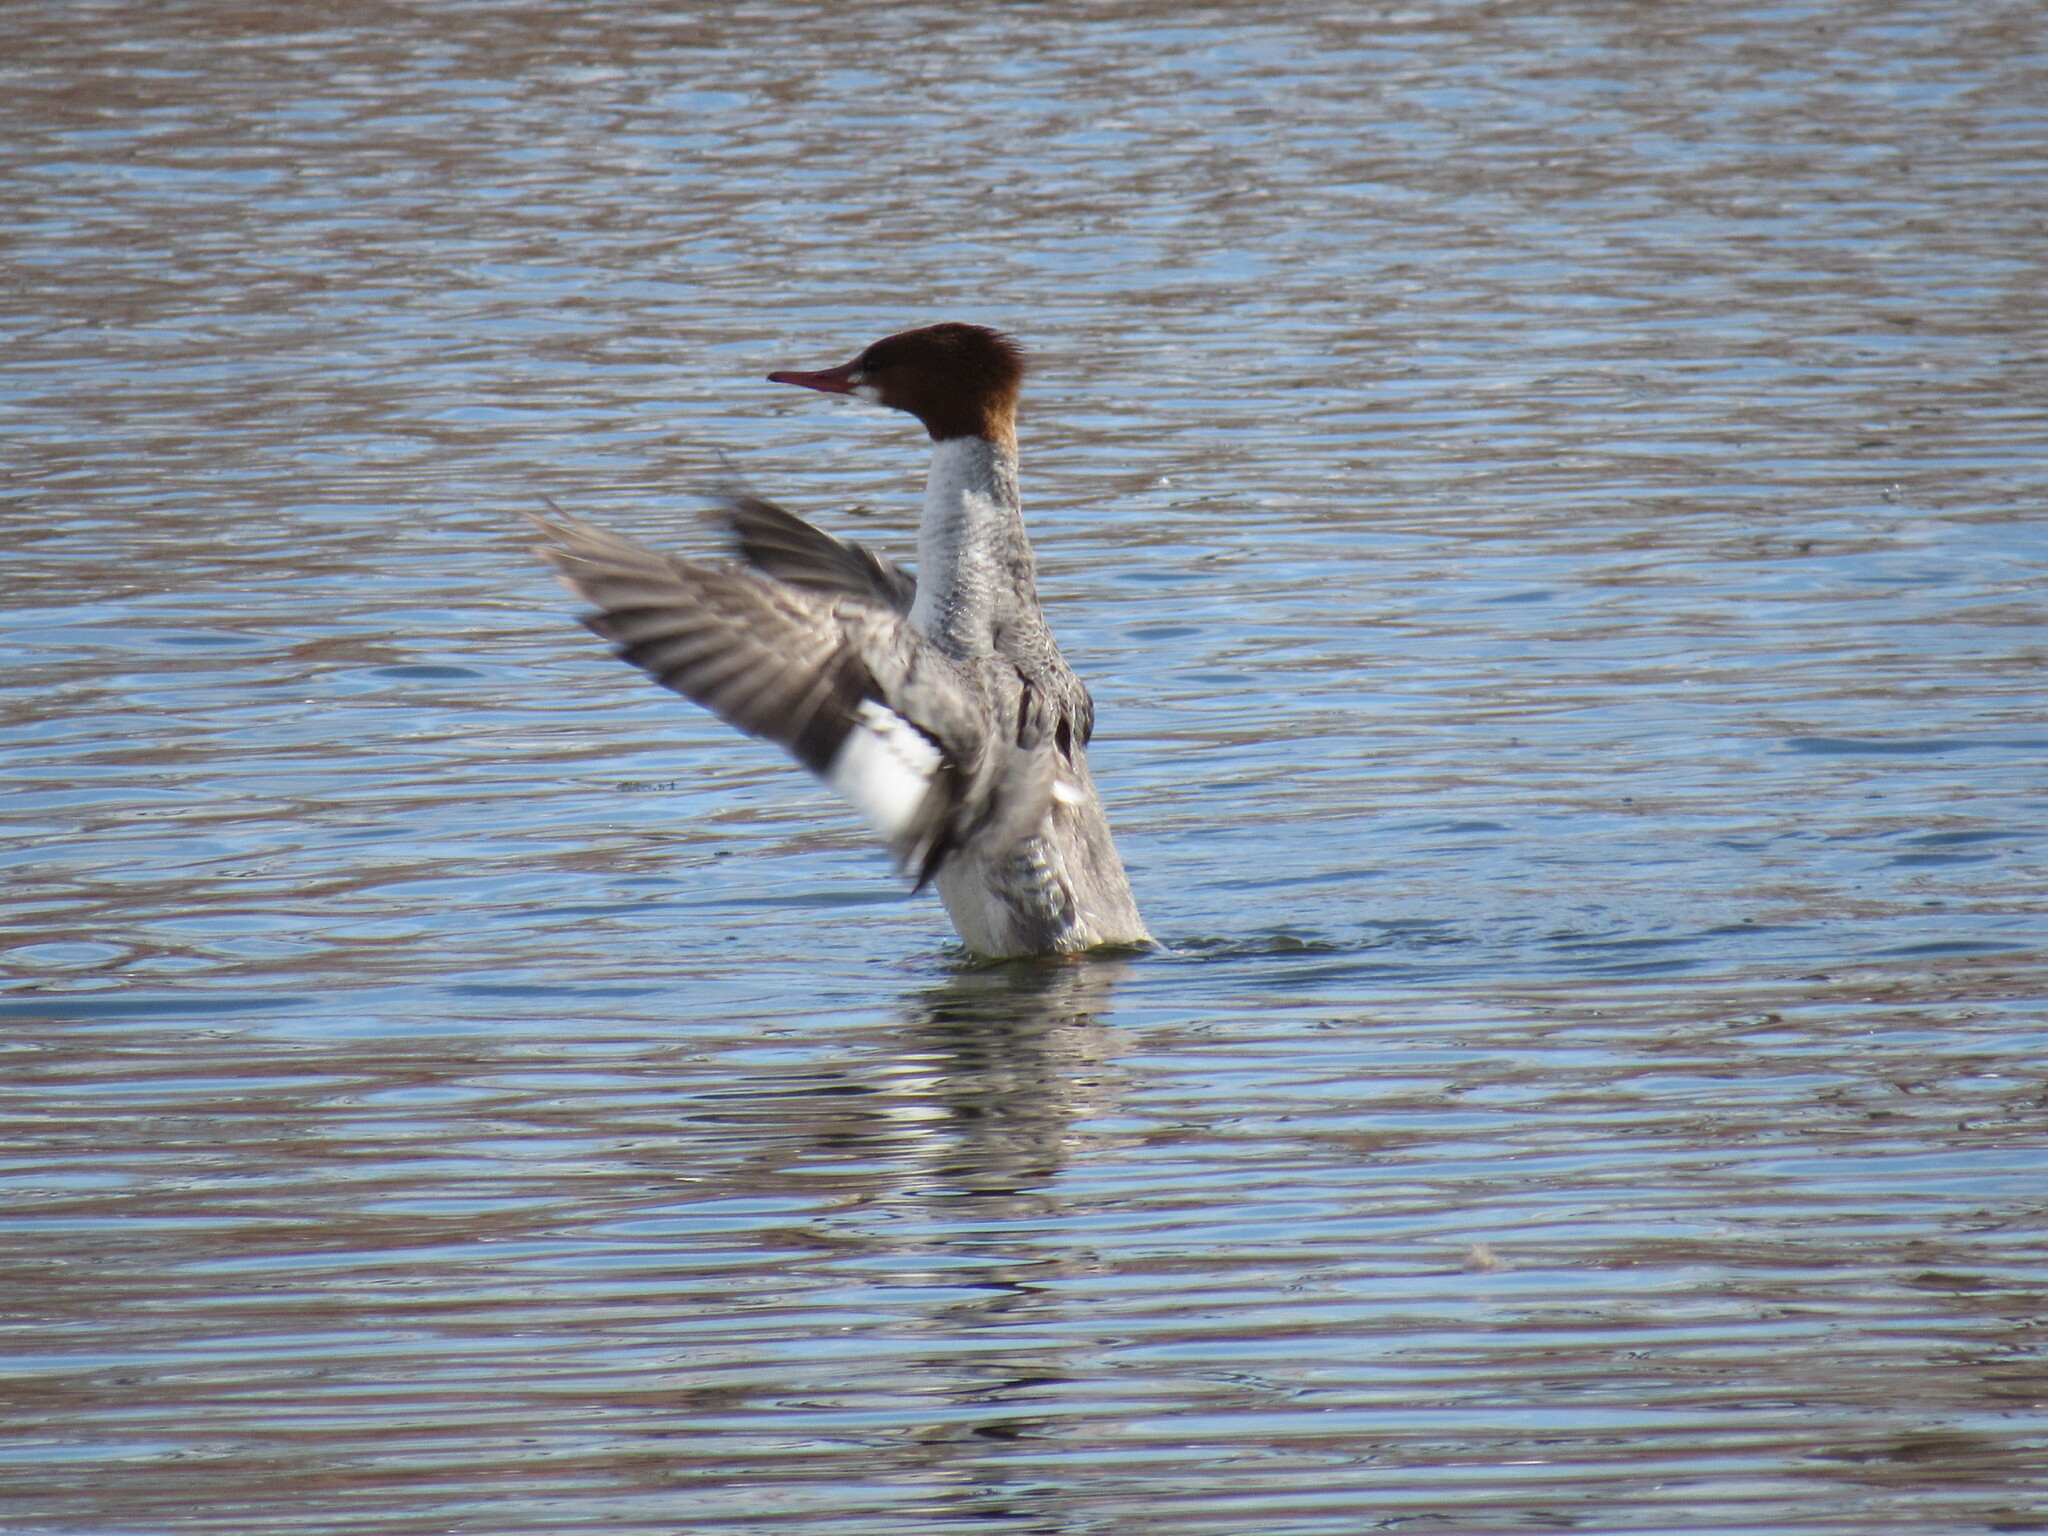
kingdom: Animalia
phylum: Chordata
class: Aves
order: Anseriformes
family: Anatidae
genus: Mergus
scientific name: Mergus merganser
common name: Common merganser
